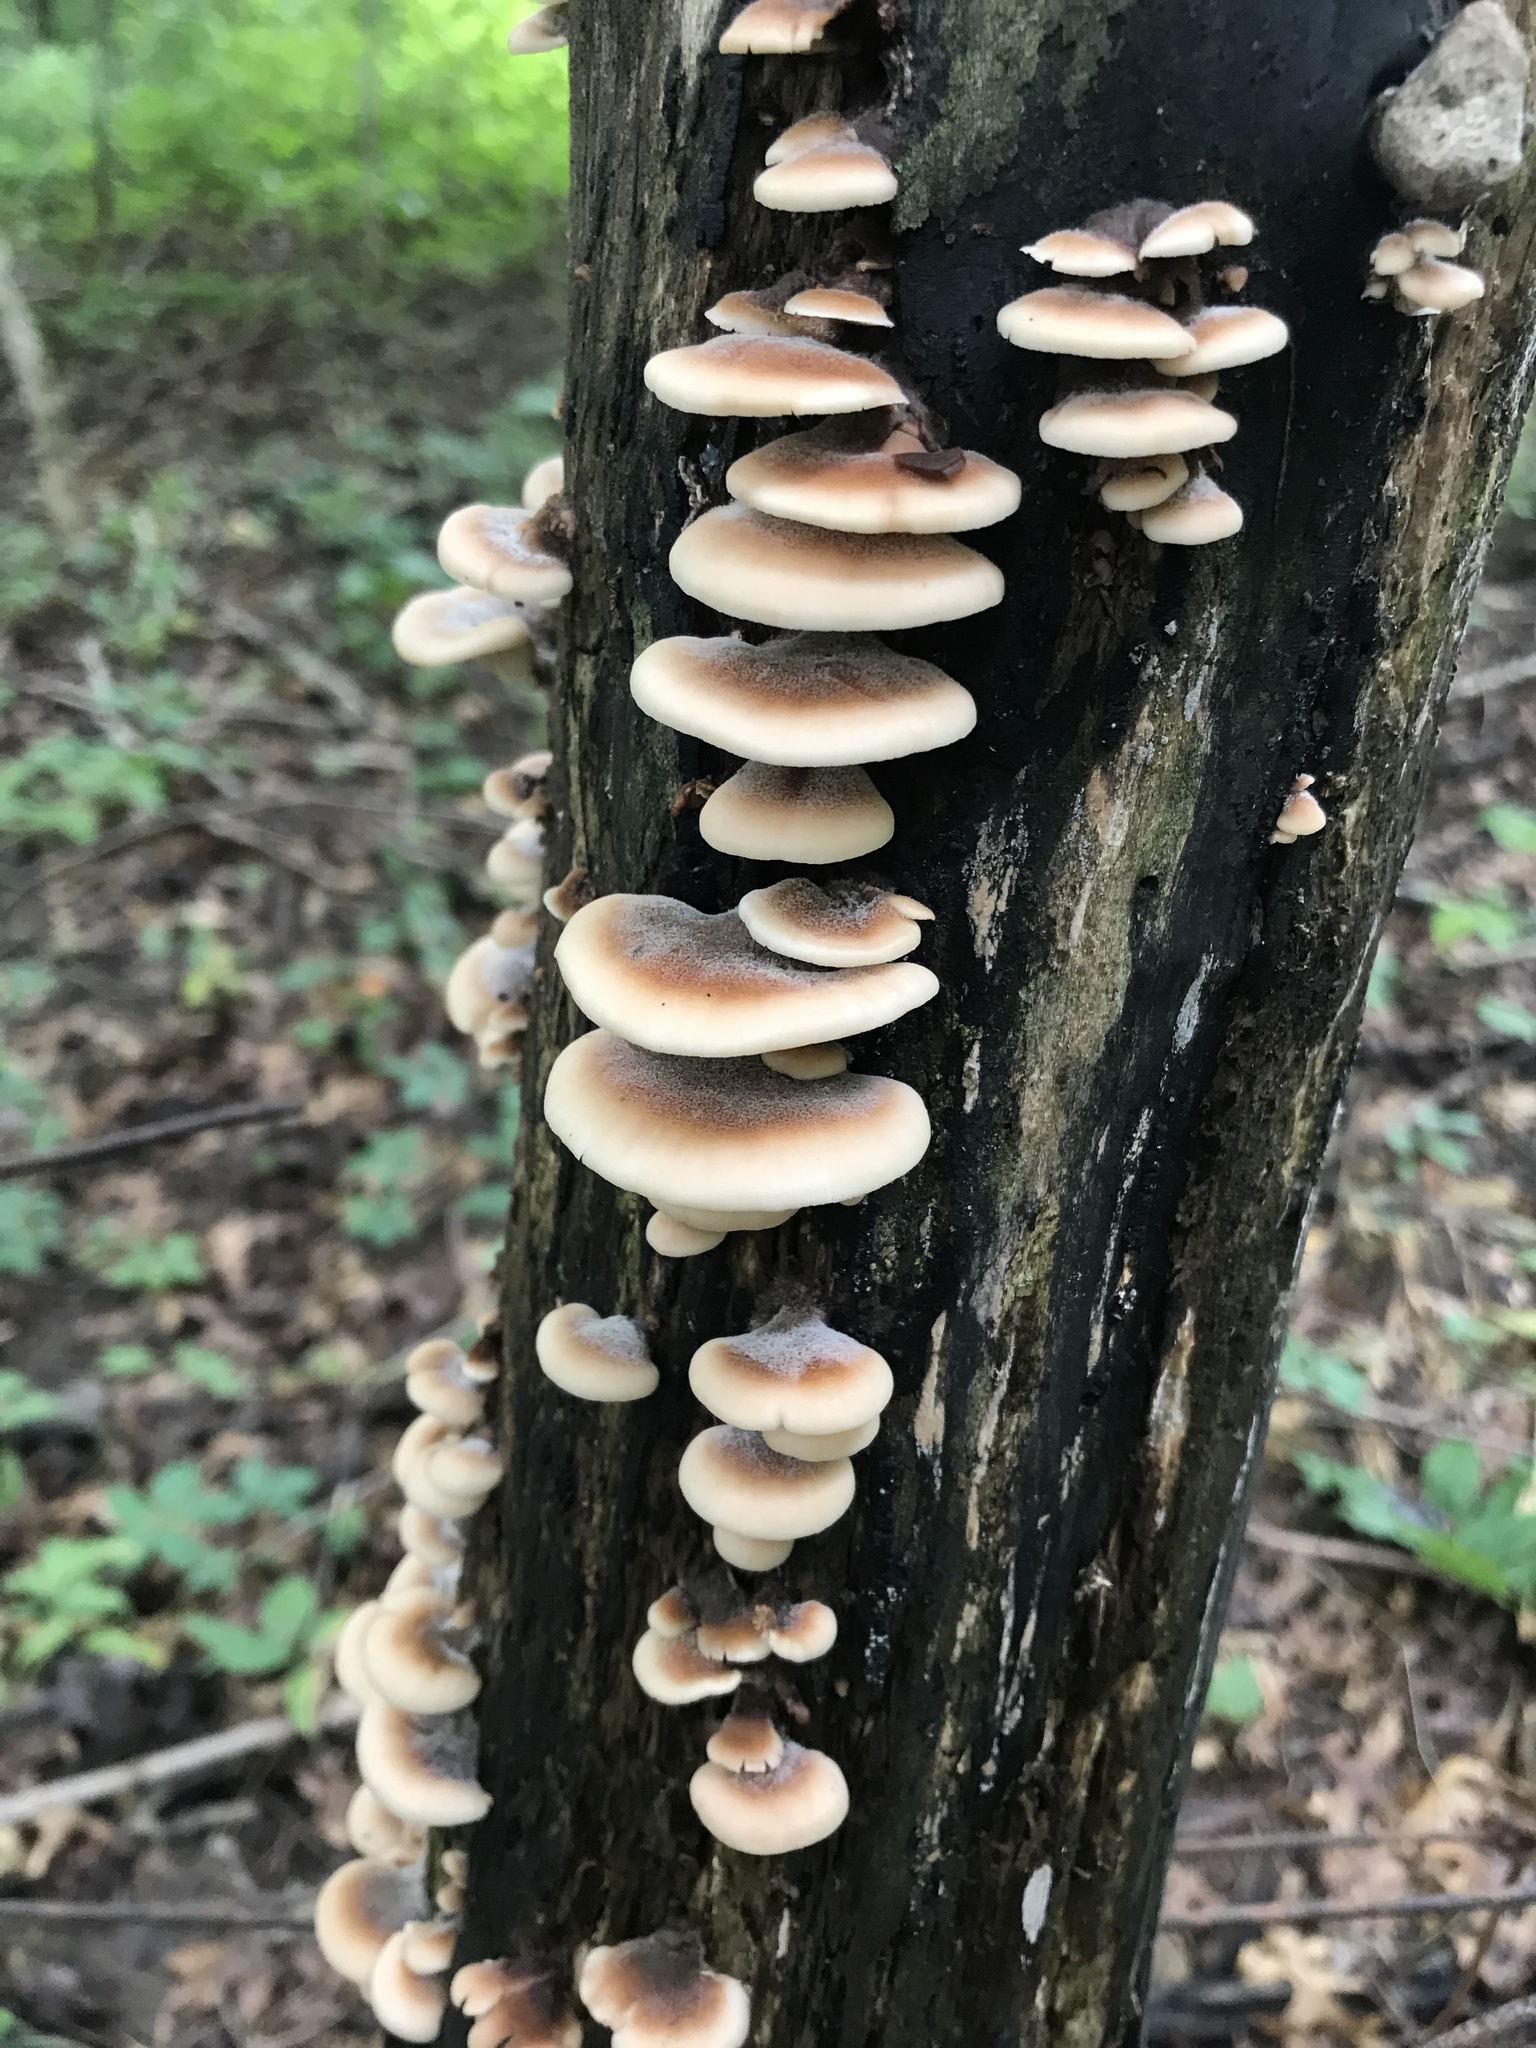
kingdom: Fungi
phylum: Basidiomycota
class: Agaricomycetes
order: Russulales
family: Auriscalpiaceae
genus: Lentinellus
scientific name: Lentinellus castoreus
